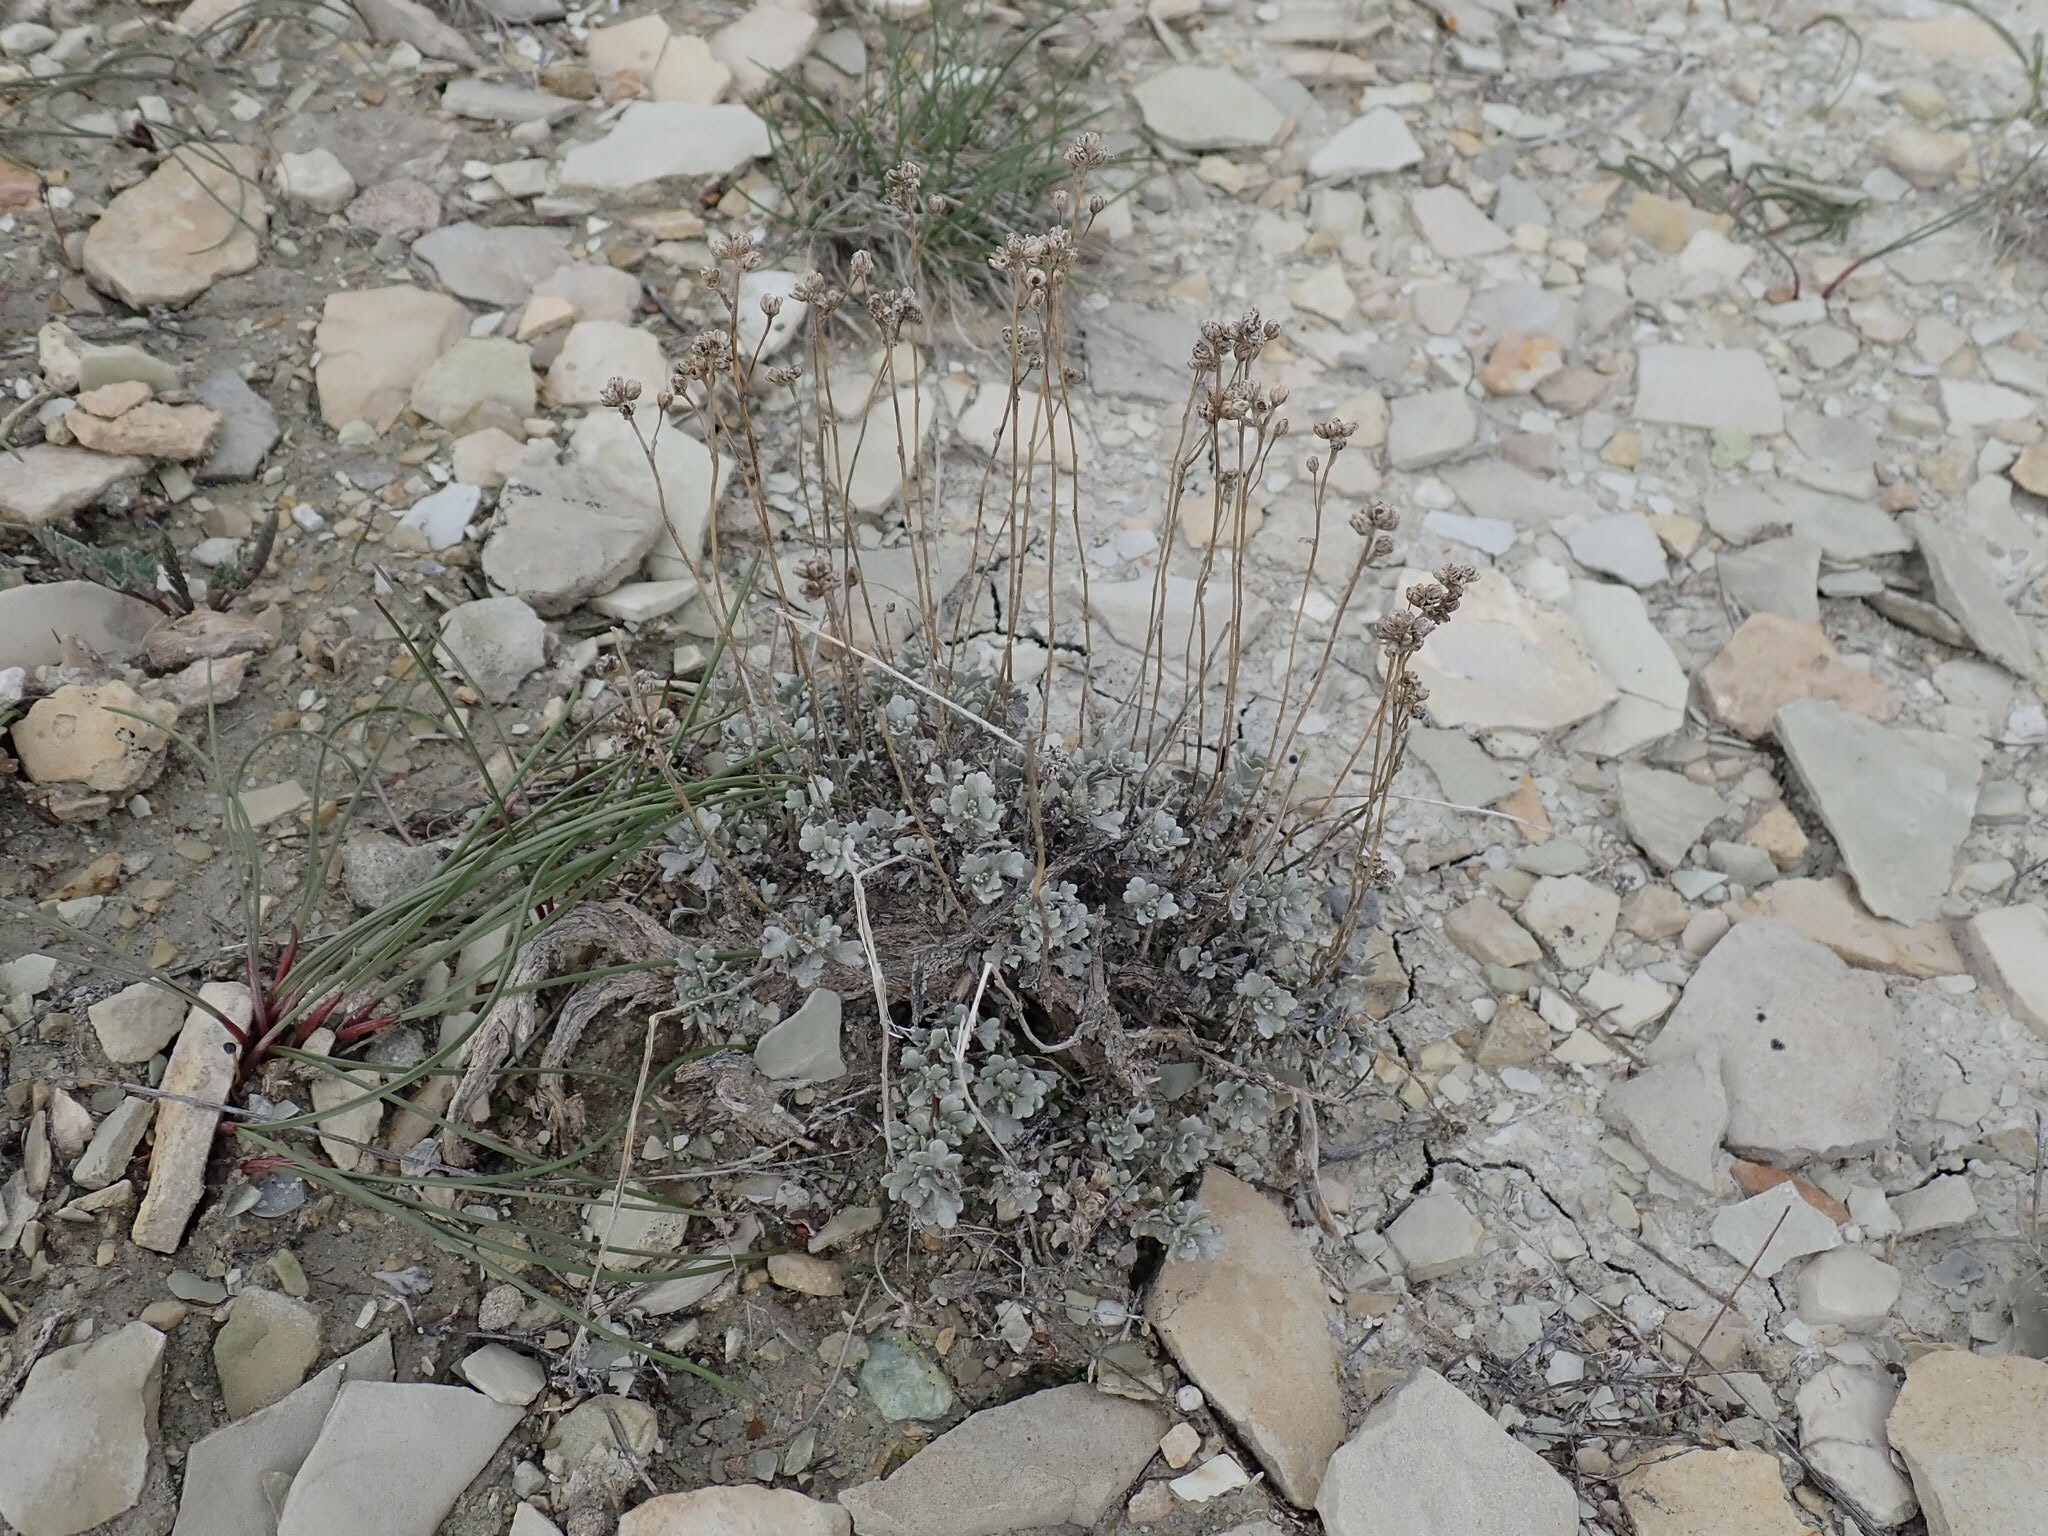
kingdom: Plantae
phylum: Tracheophyta
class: Magnoliopsida
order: Asterales
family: Asteraceae
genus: Artemisia
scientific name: Artemisia nuttallii
